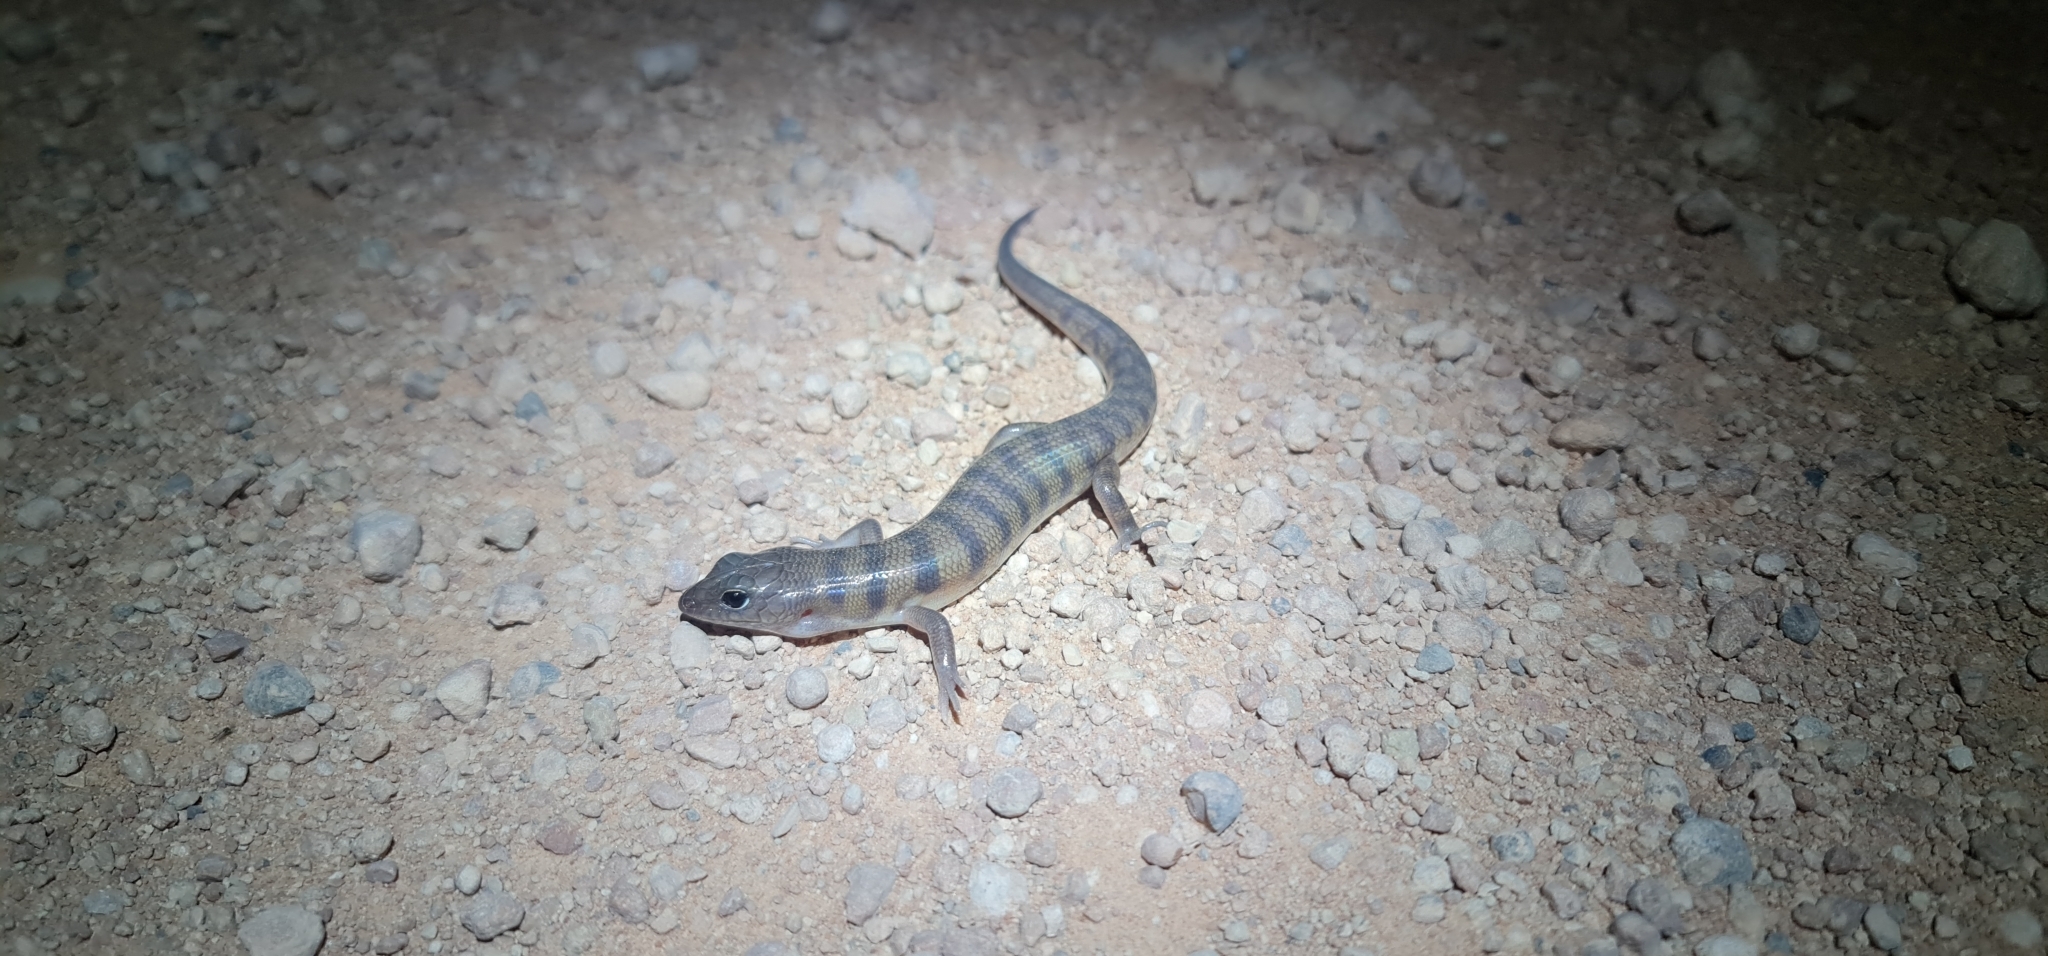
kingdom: Animalia
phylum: Chordata
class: Squamata
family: Scincidae
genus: Eremiascincus
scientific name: Eremiascincus richardsonii
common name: Broad banded sand swimmer
